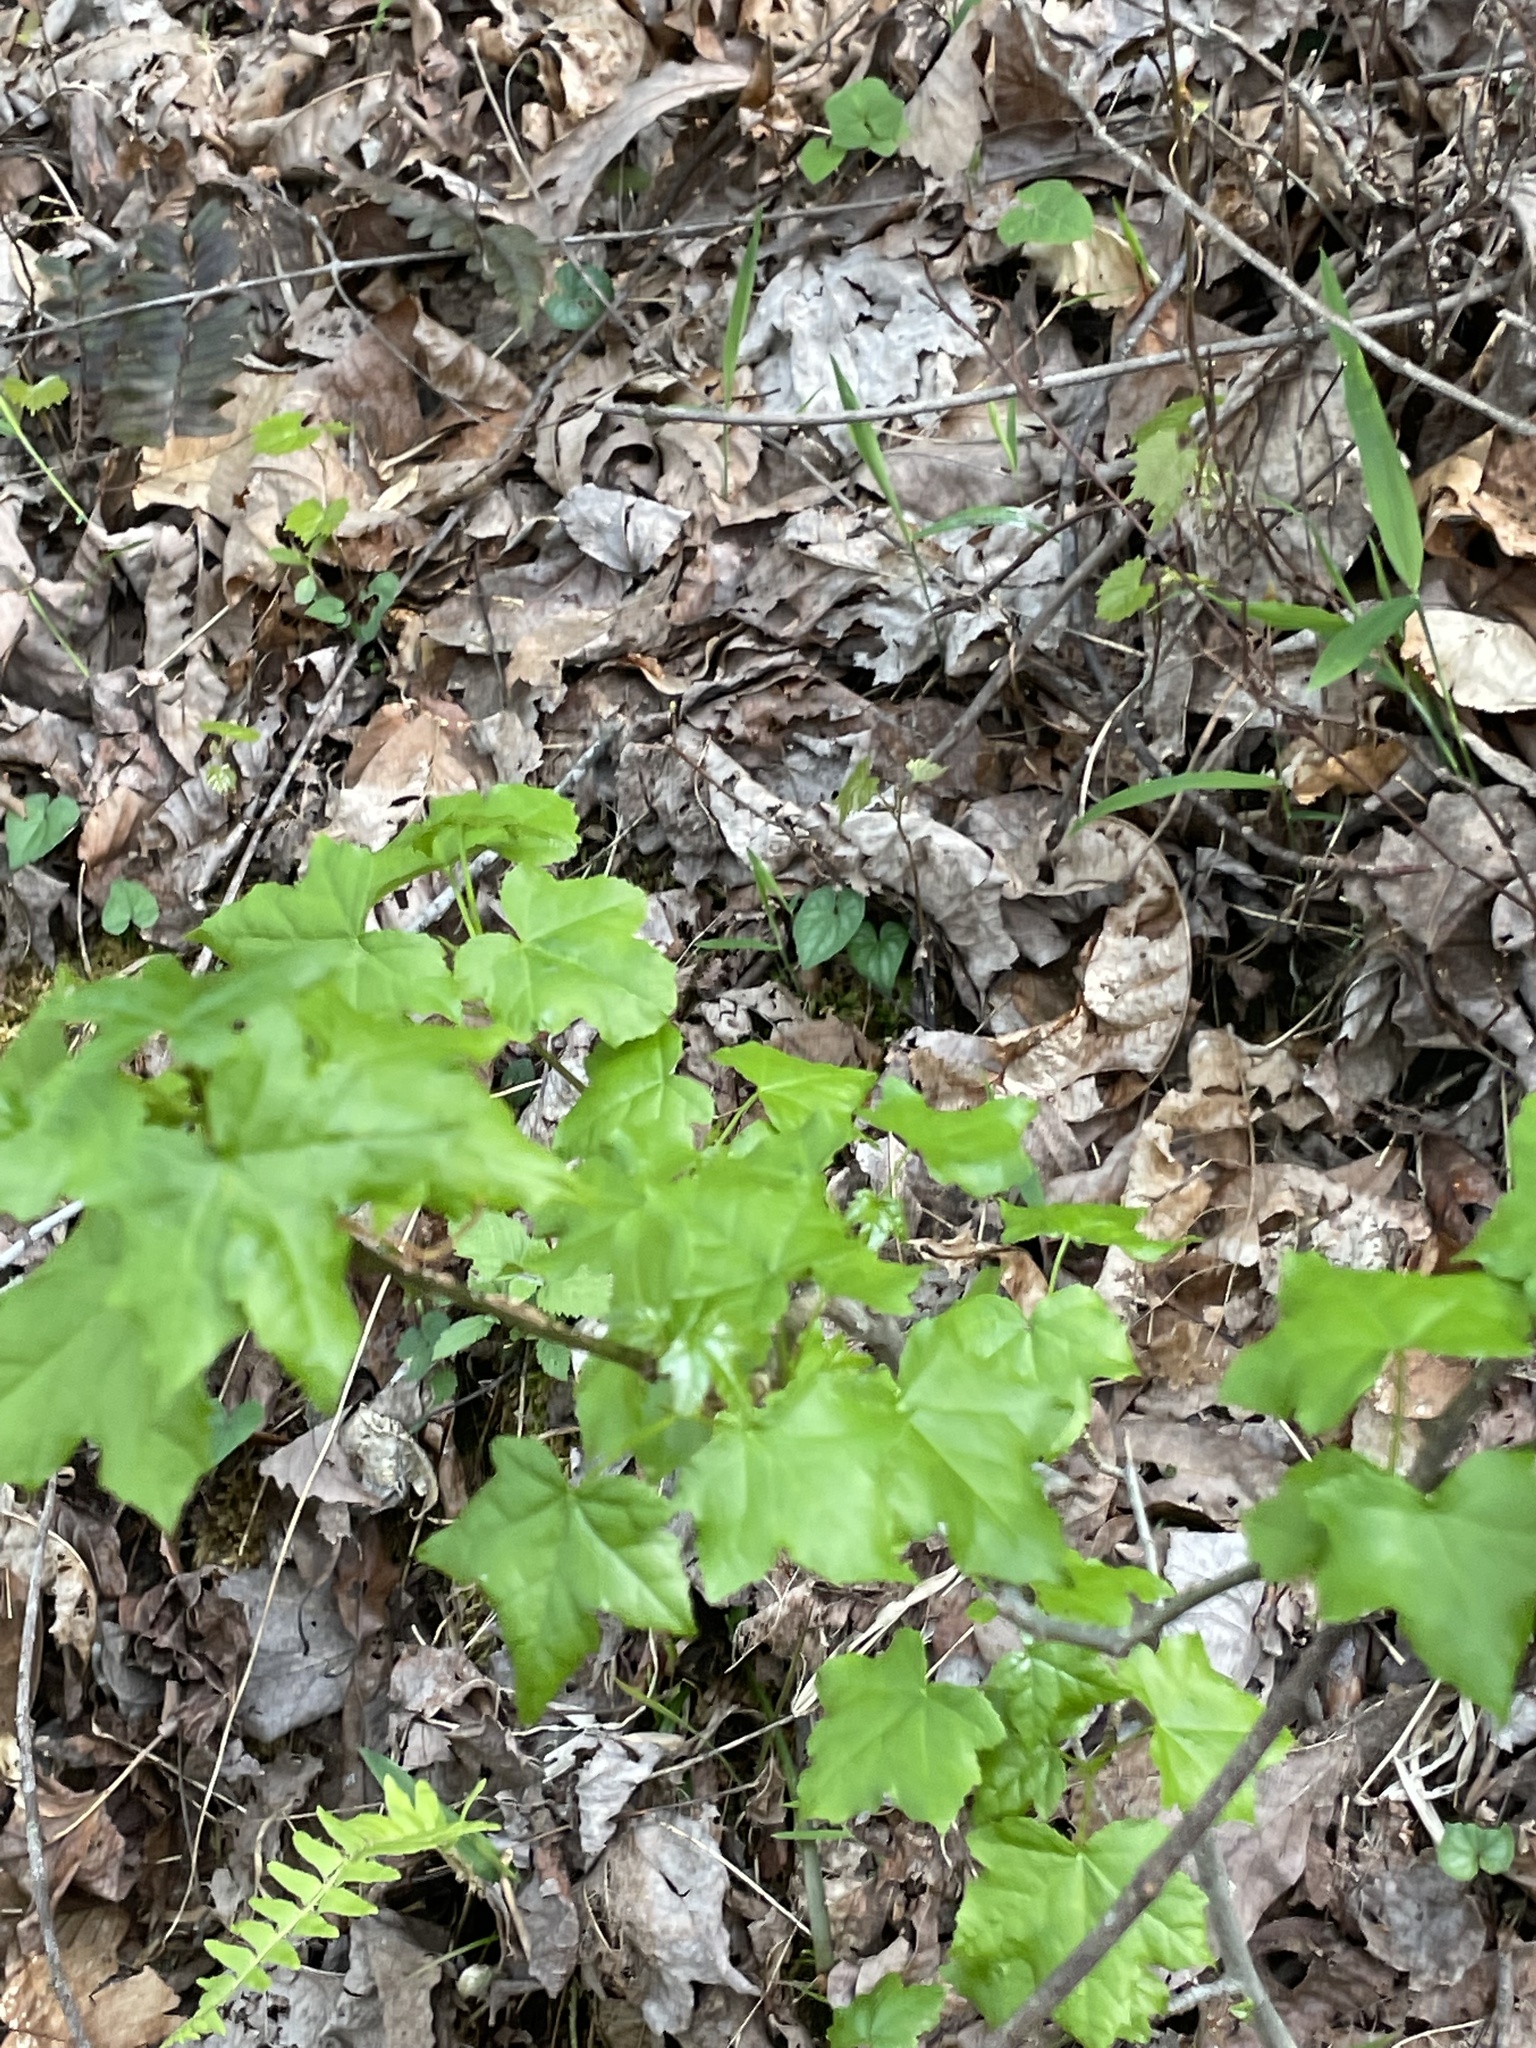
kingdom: Plantae
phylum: Tracheophyta
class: Magnoliopsida
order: Saxifragales
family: Altingiaceae
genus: Liquidambar
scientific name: Liquidambar styraciflua
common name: Sweet gum
